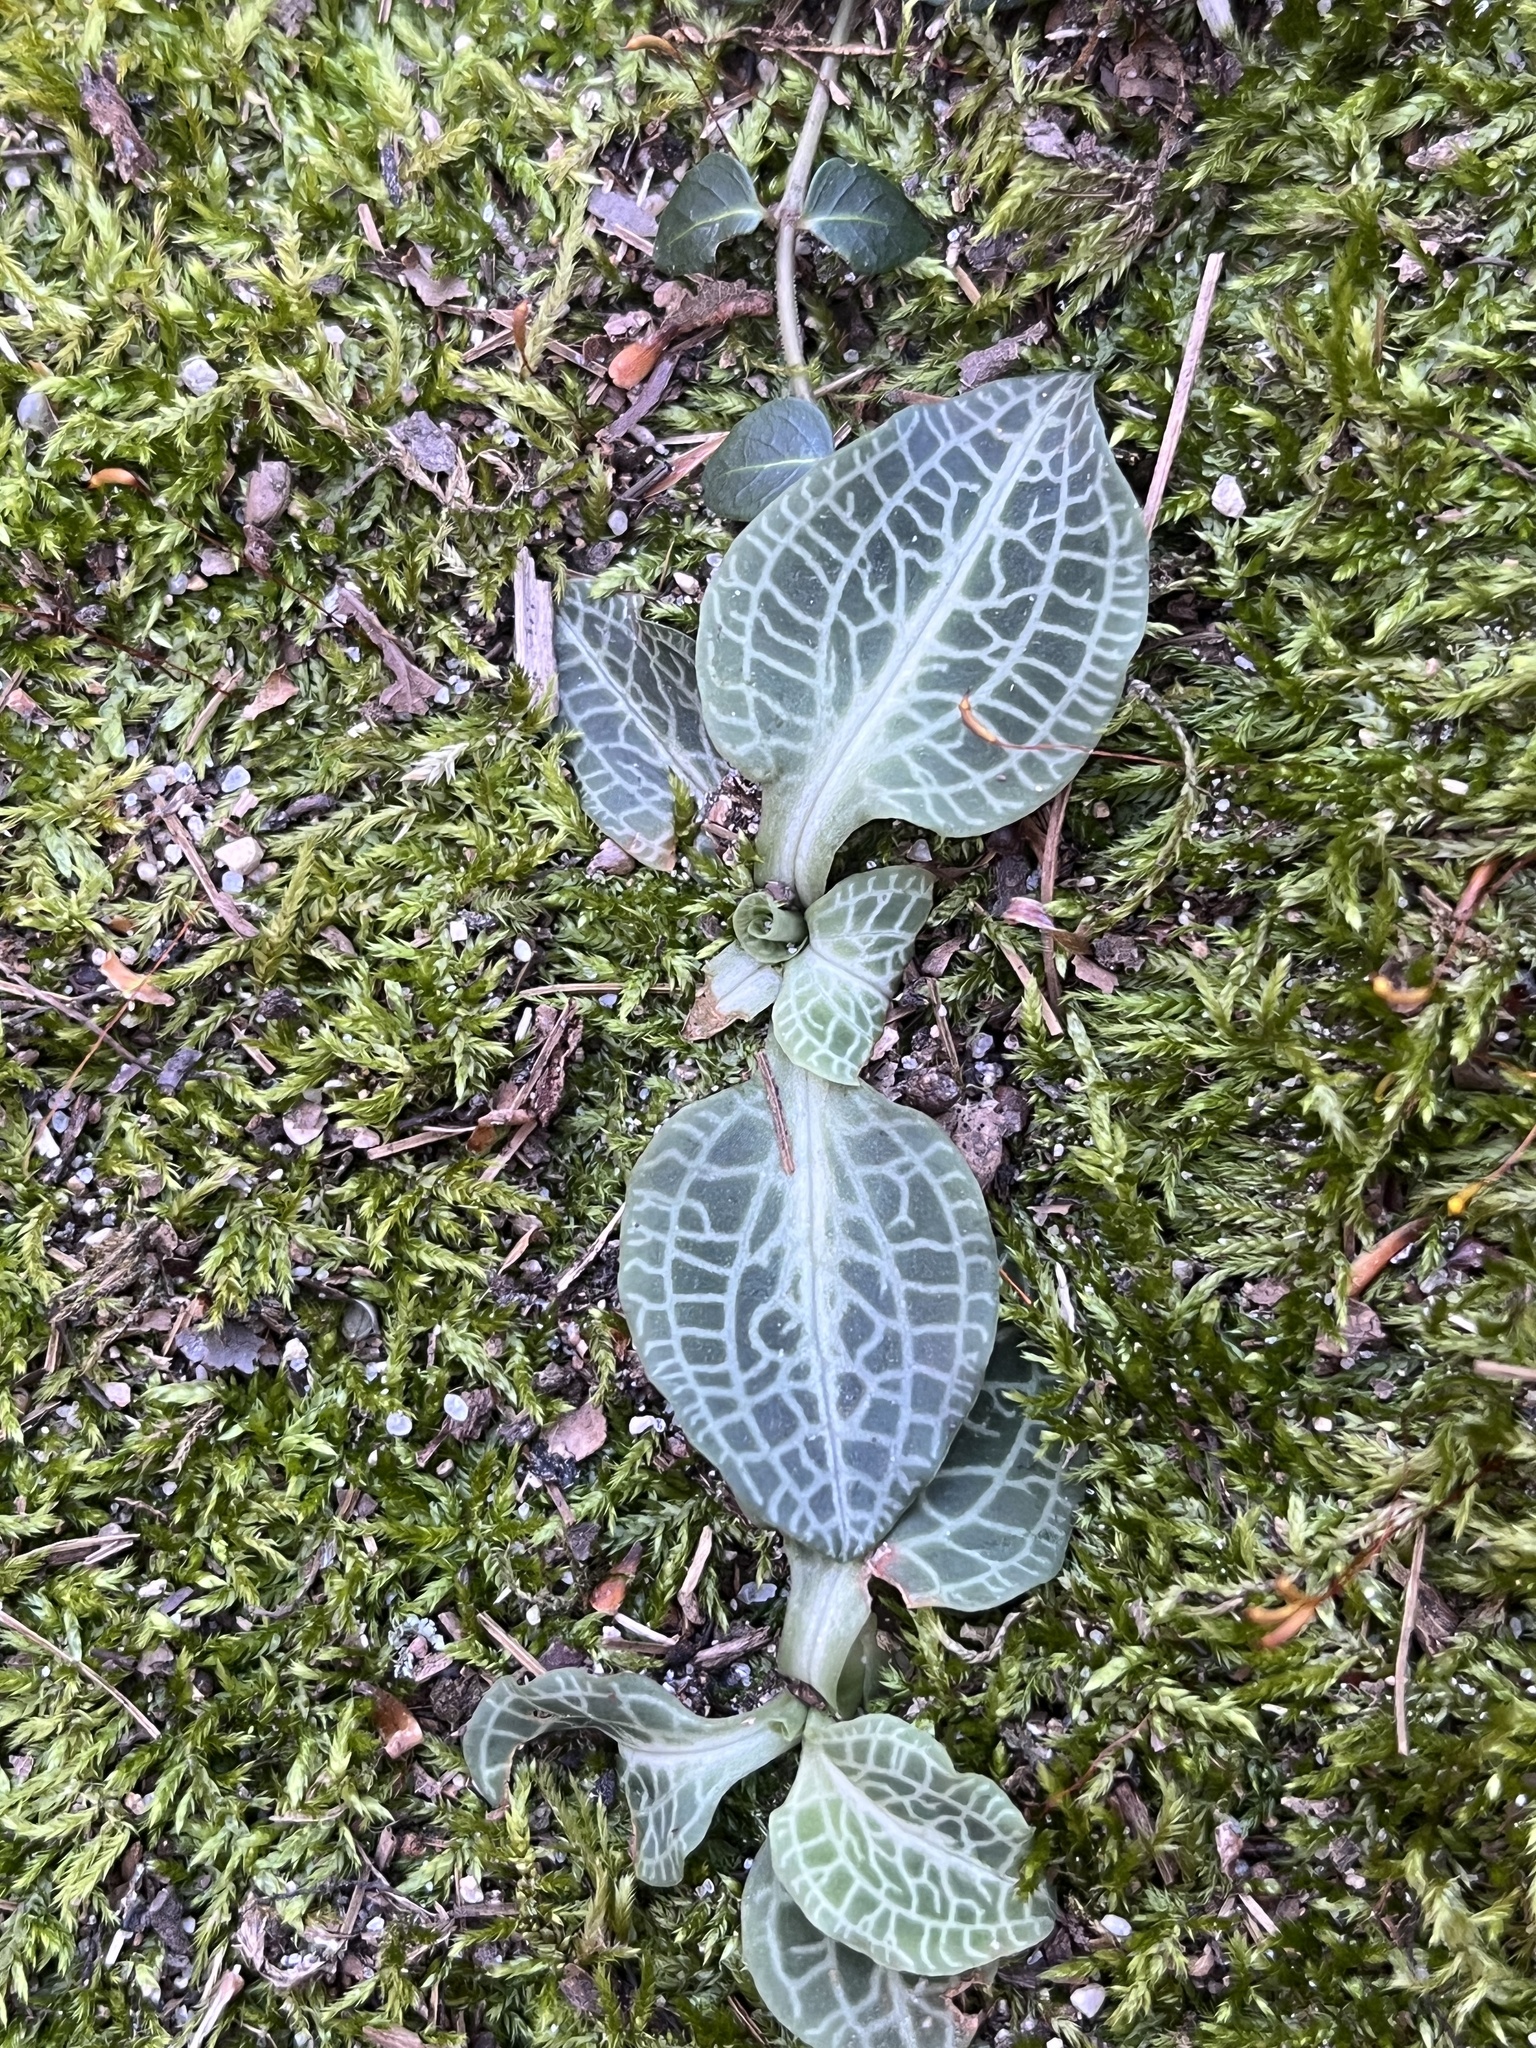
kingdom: Plantae
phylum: Tracheophyta
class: Liliopsida
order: Asparagales
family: Orchidaceae
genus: Goodyera
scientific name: Goodyera pubescens
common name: Downy rattlesnake-plantain
